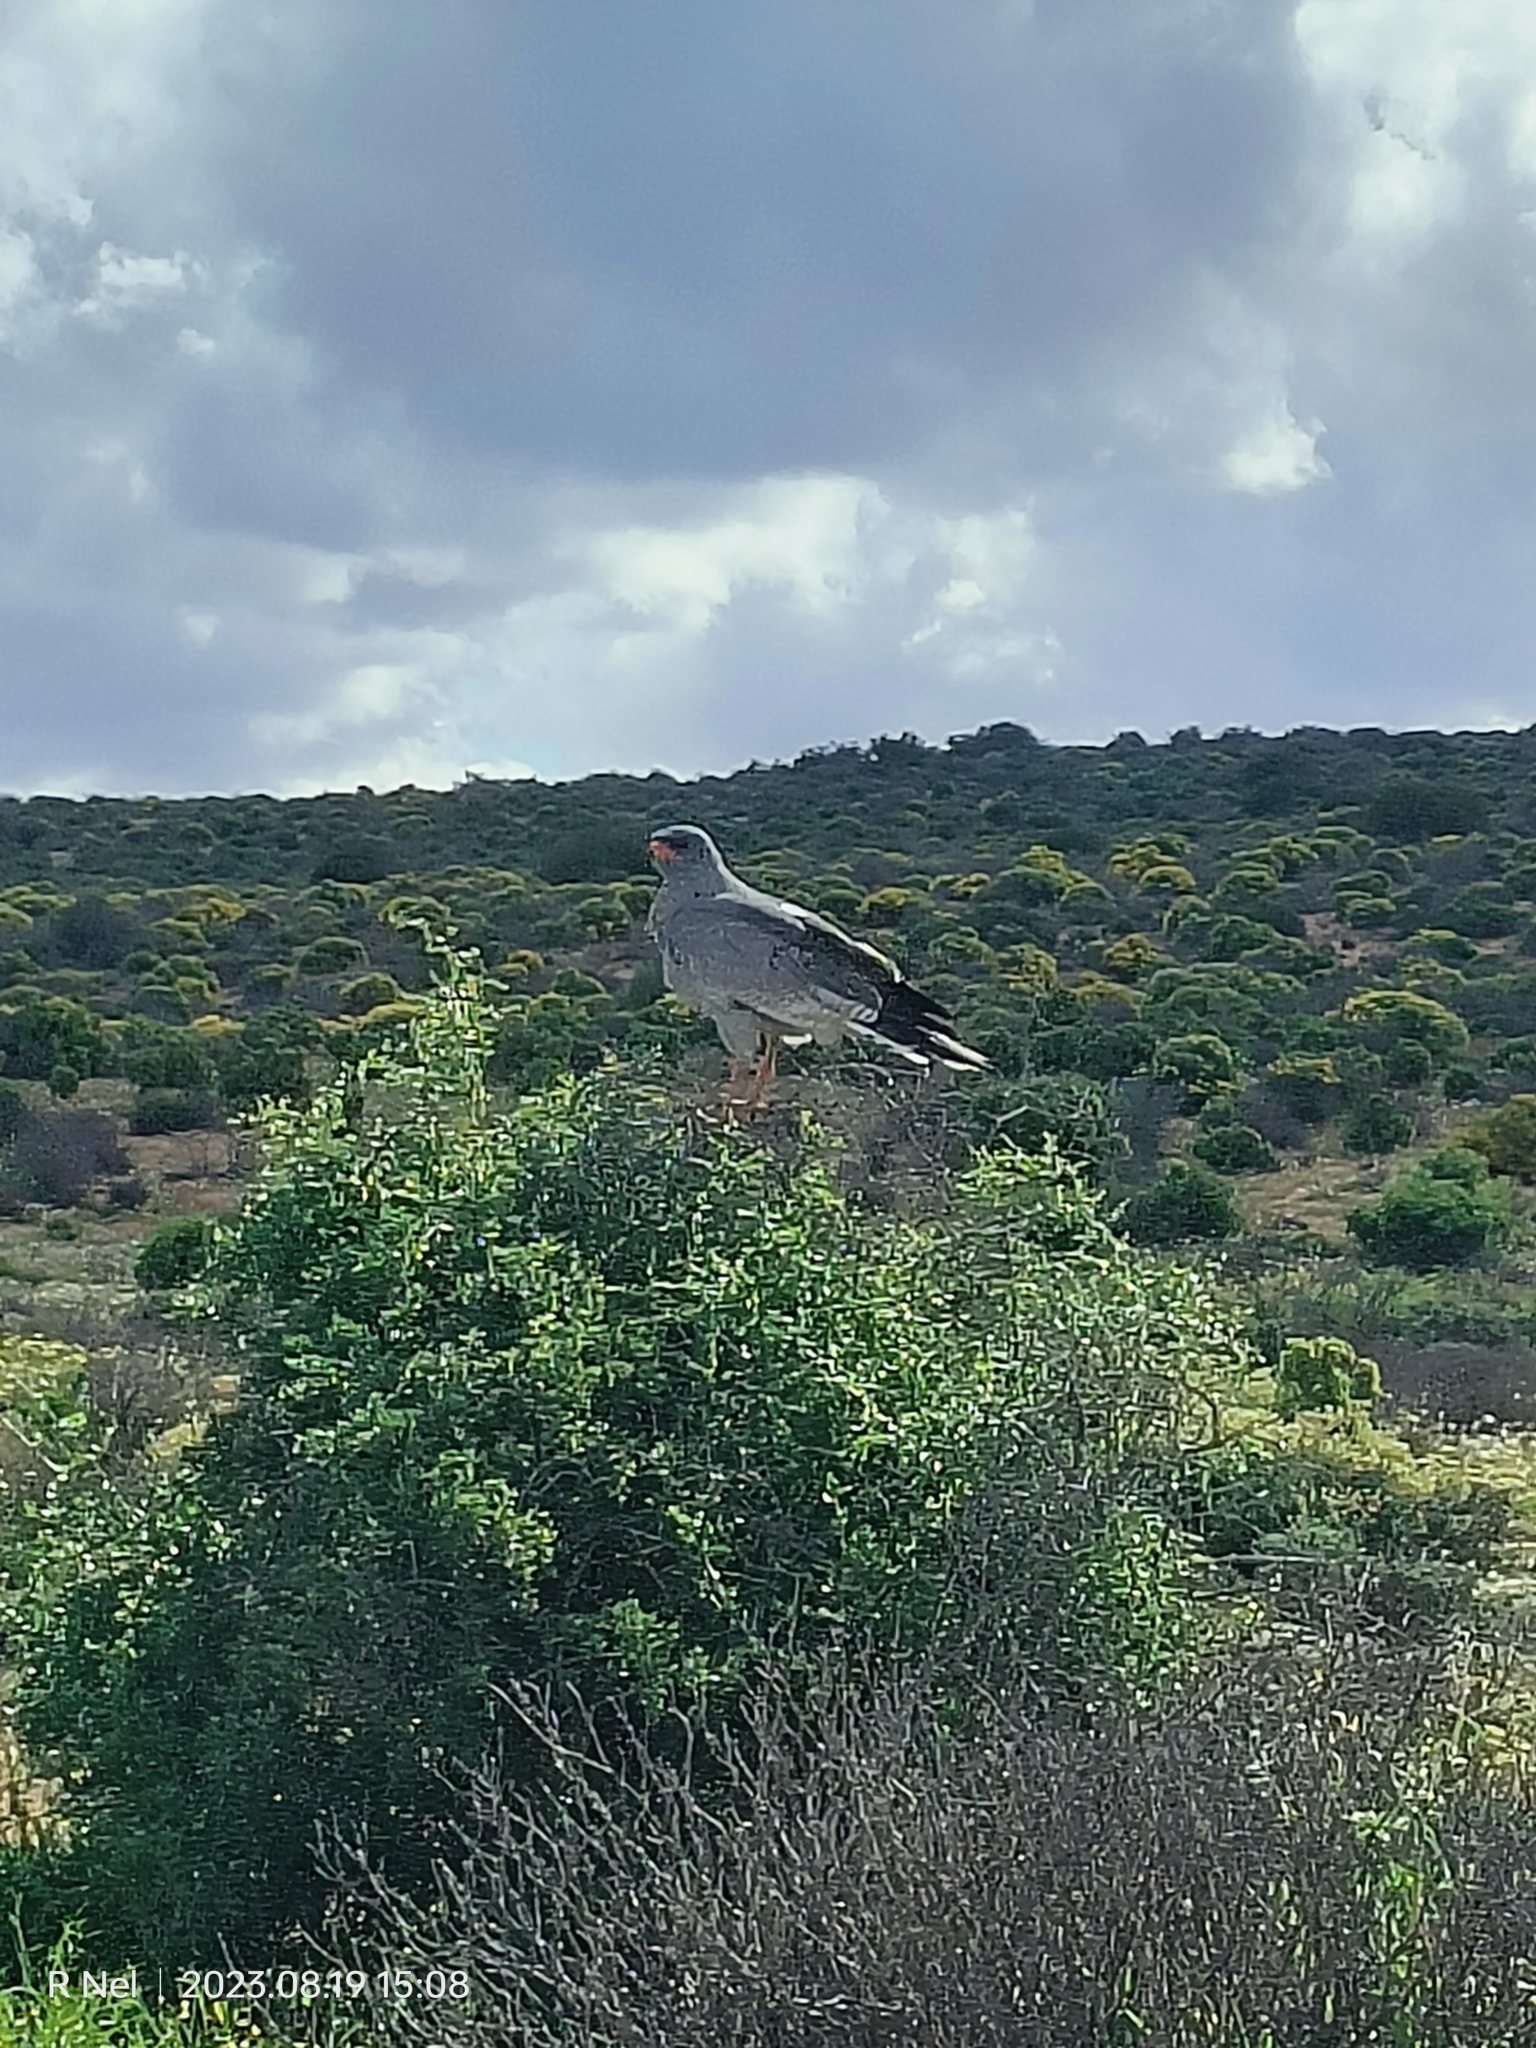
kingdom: Animalia
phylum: Chordata
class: Aves
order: Accipitriformes
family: Accipitridae
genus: Melierax
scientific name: Melierax canorus
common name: Pale chanting-goshawk
